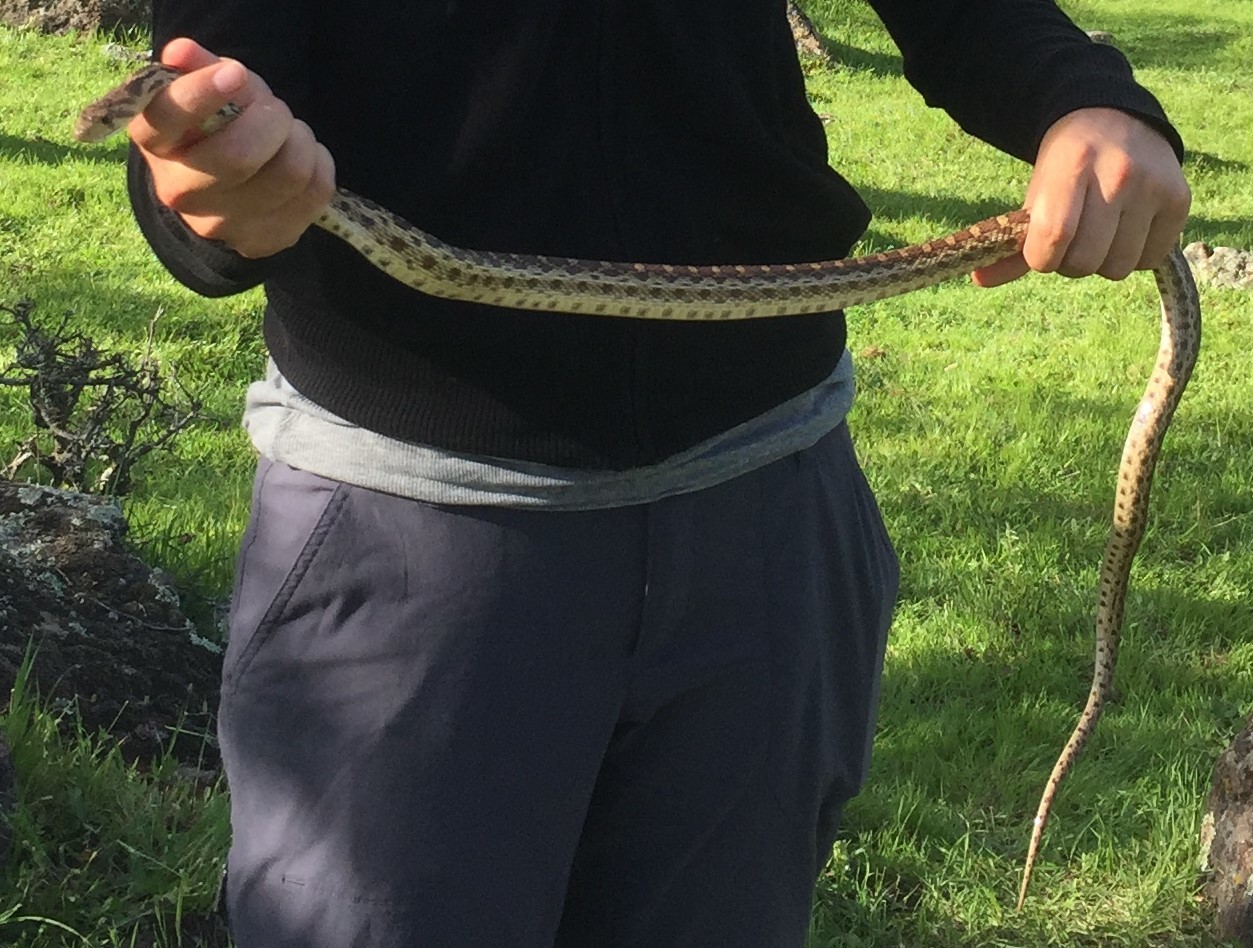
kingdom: Animalia
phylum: Chordata
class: Squamata
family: Colubridae
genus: Pituophis
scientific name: Pituophis catenifer
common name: Gopher snake
